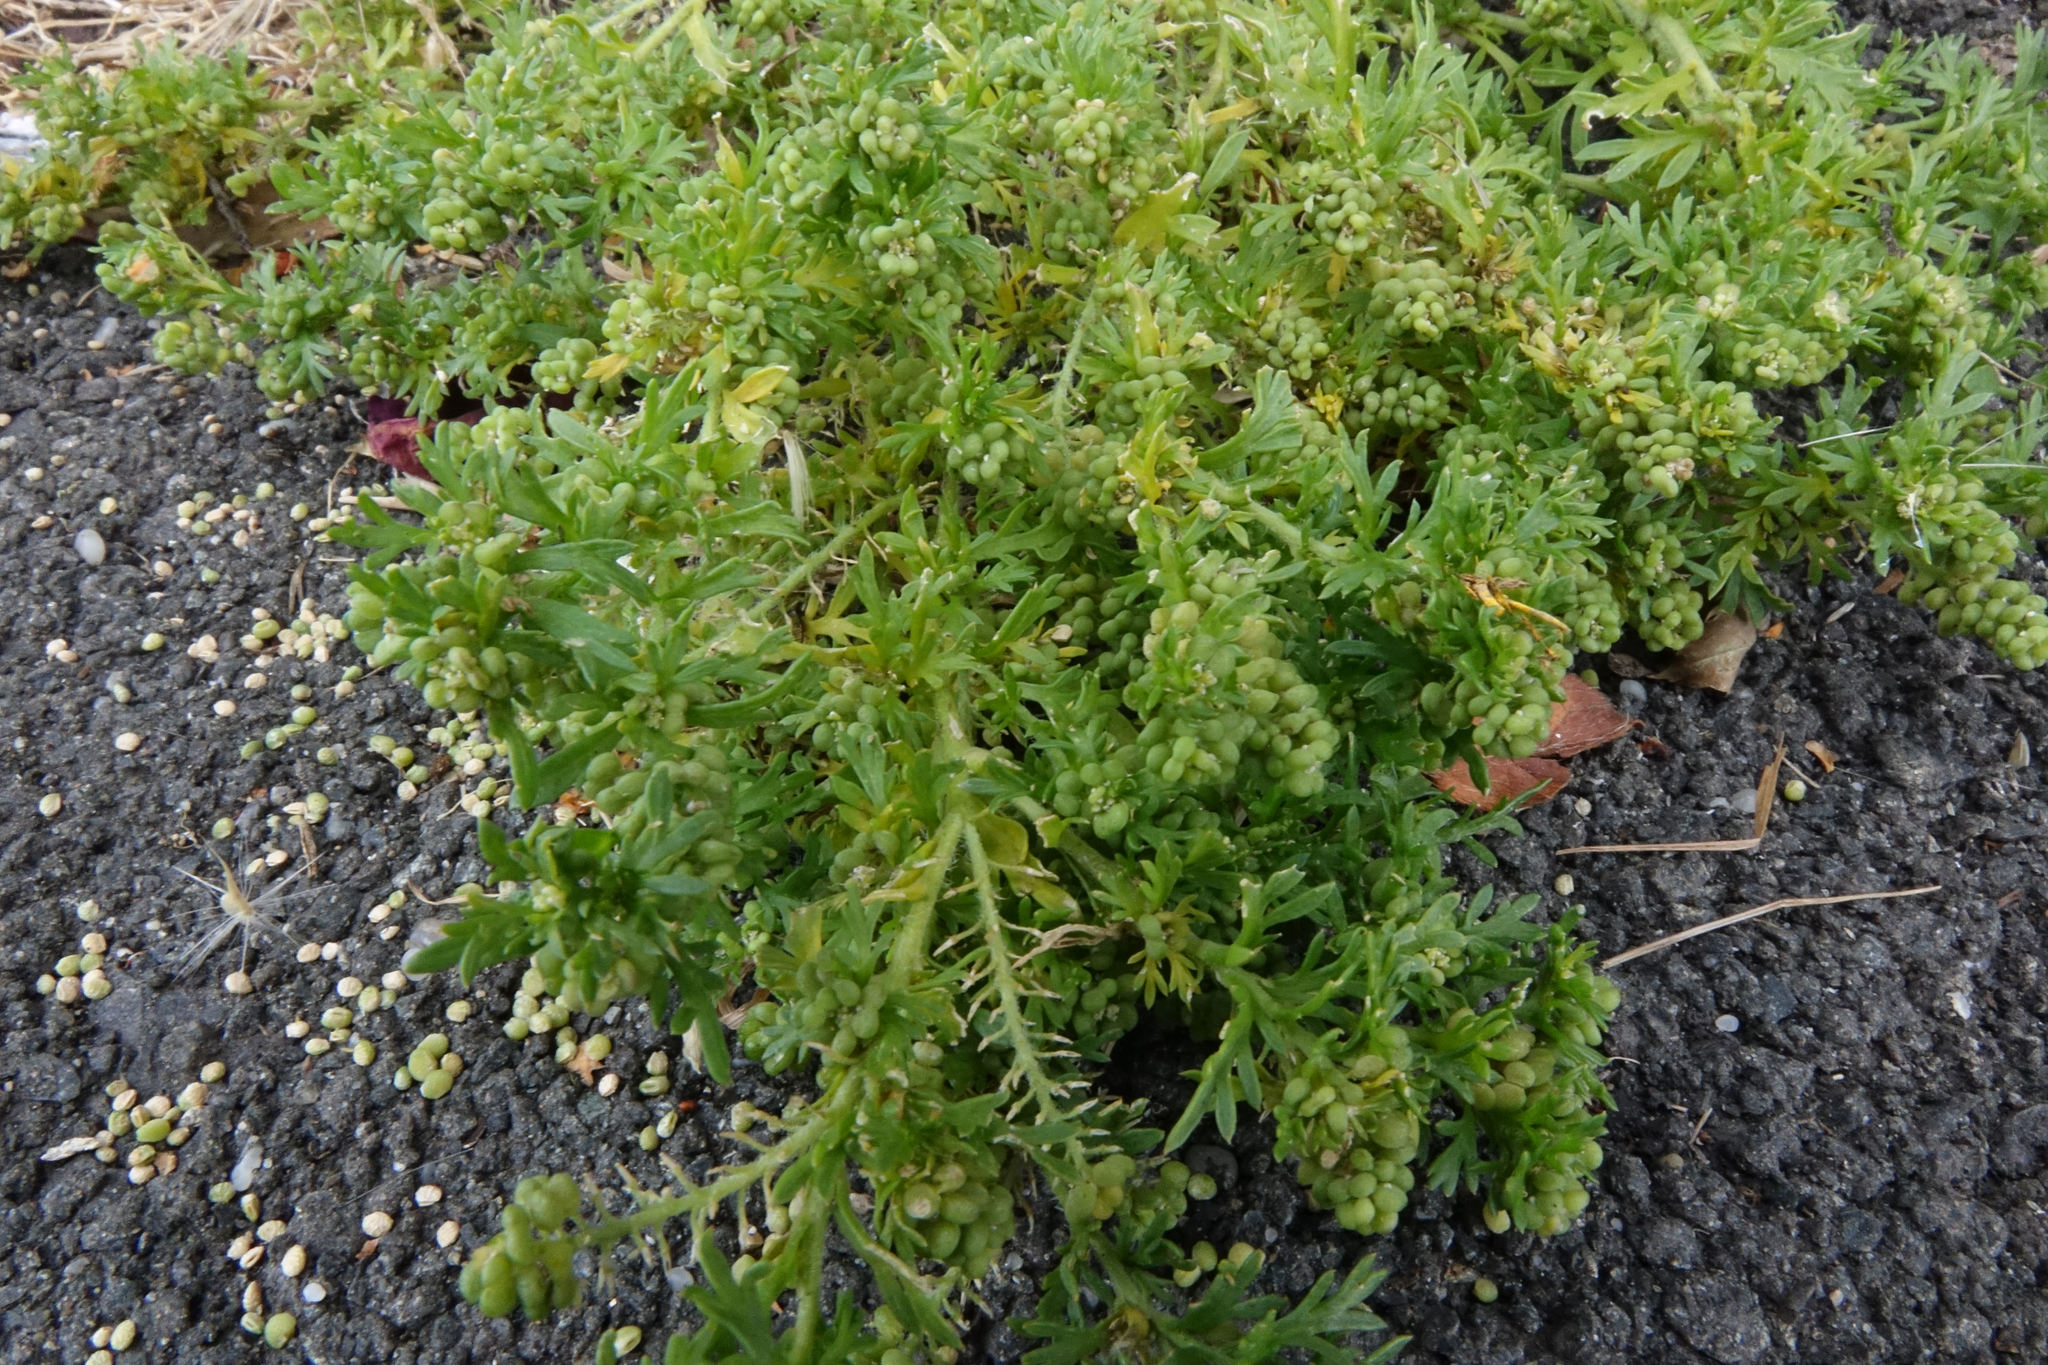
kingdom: Plantae
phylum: Tracheophyta
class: Magnoliopsida
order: Brassicales
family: Brassicaceae
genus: Lepidium
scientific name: Lepidium didymum
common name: Lesser swinecress
